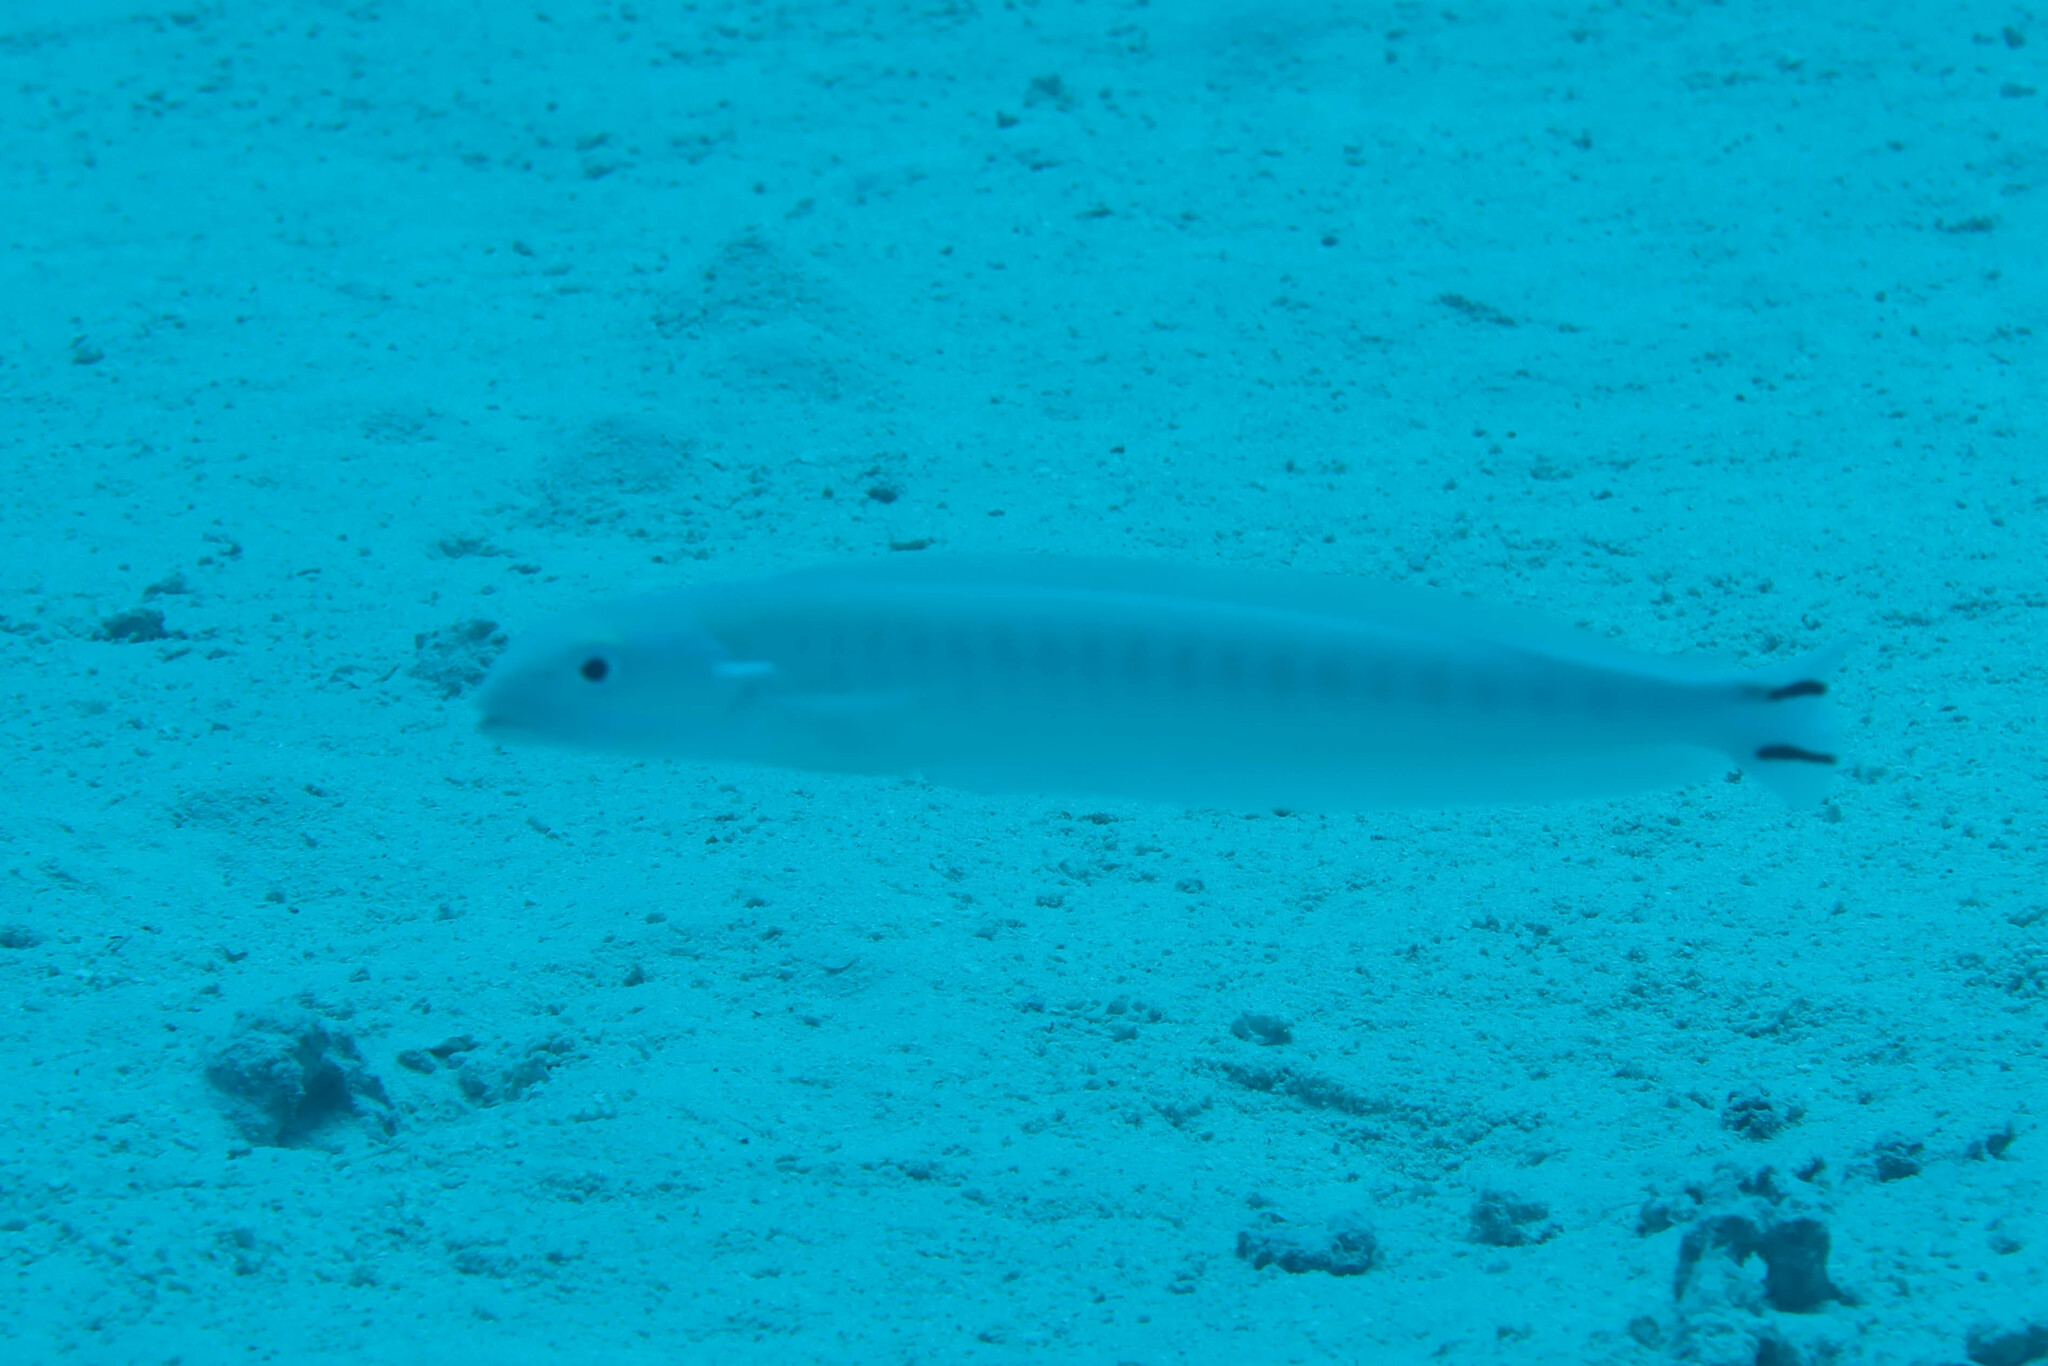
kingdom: Animalia
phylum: Chordata
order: Perciformes
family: Malacanthidae
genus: Malacanthus
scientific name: Malacanthus brevirostris
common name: Flagtail blanquillo
